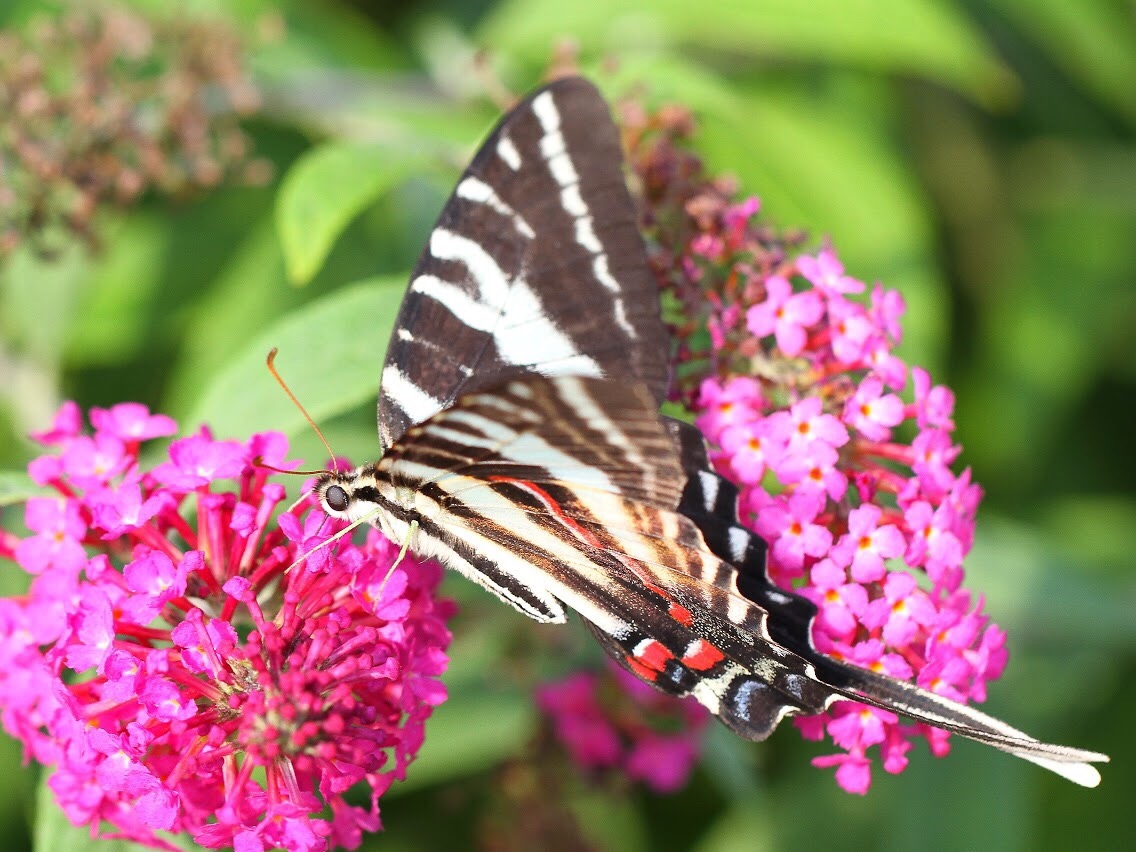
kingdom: Animalia
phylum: Arthropoda
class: Insecta
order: Lepidoptera
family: Papilionidae
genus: Protographium
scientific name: Protographium marcellus
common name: Zebra swallowtail
